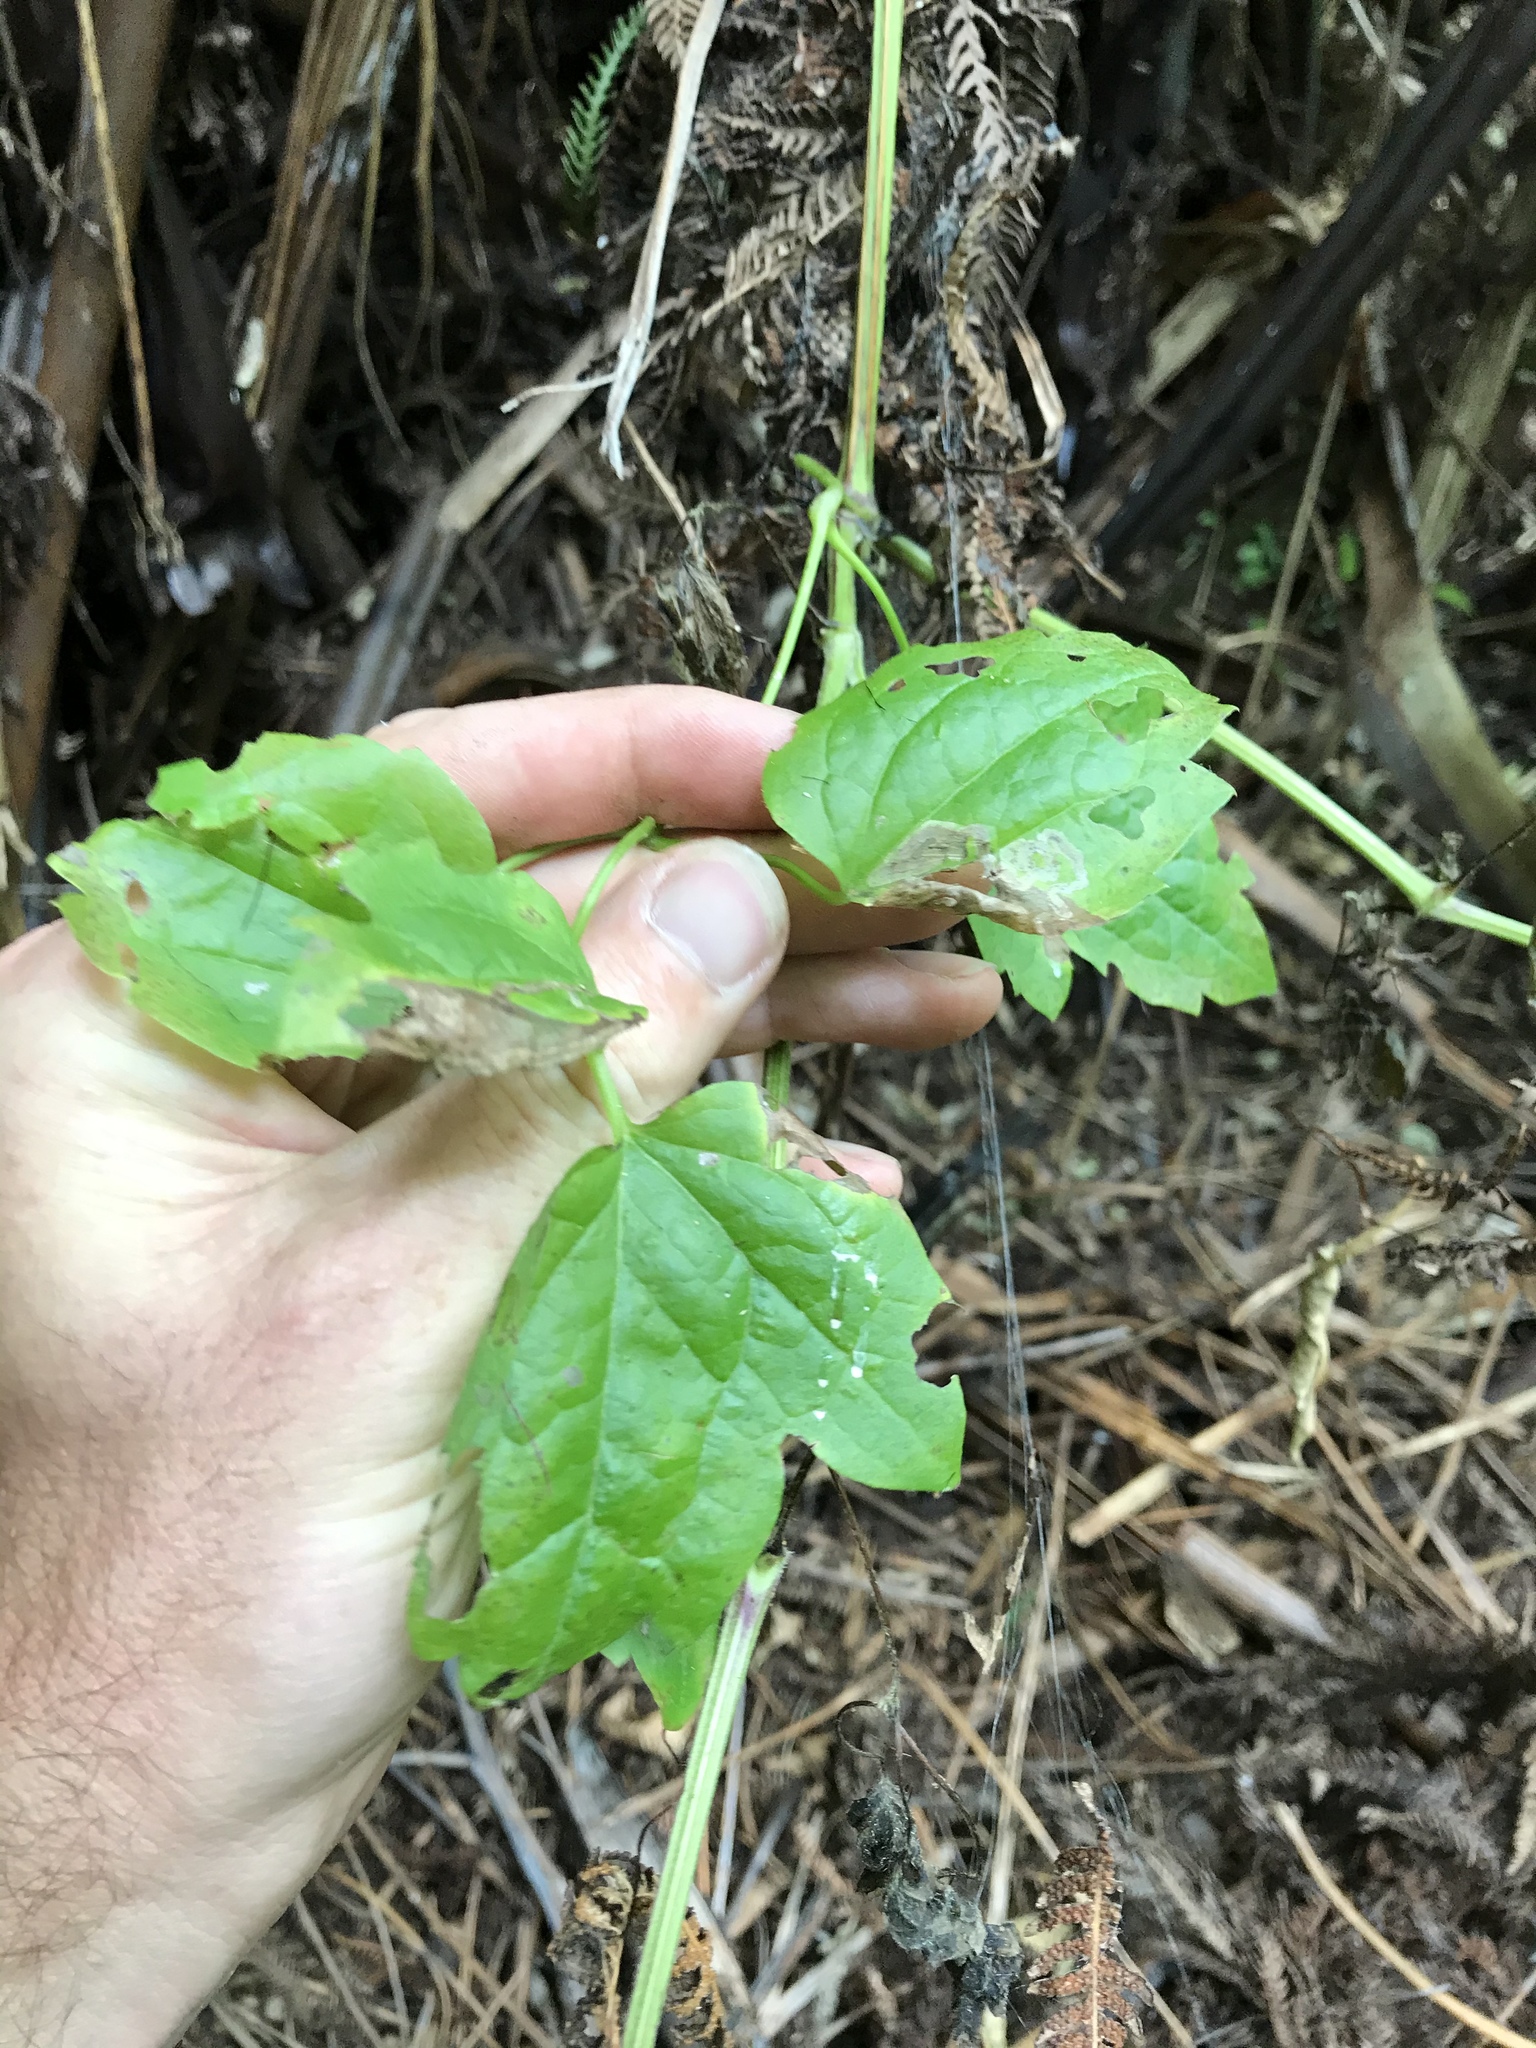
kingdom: Plantae
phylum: Tracheophyta
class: Magnoliopsida
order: Ranunculales
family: Ranunculaceae
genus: Clematis
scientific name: Clematis vitalba
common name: Evergreen clematis
